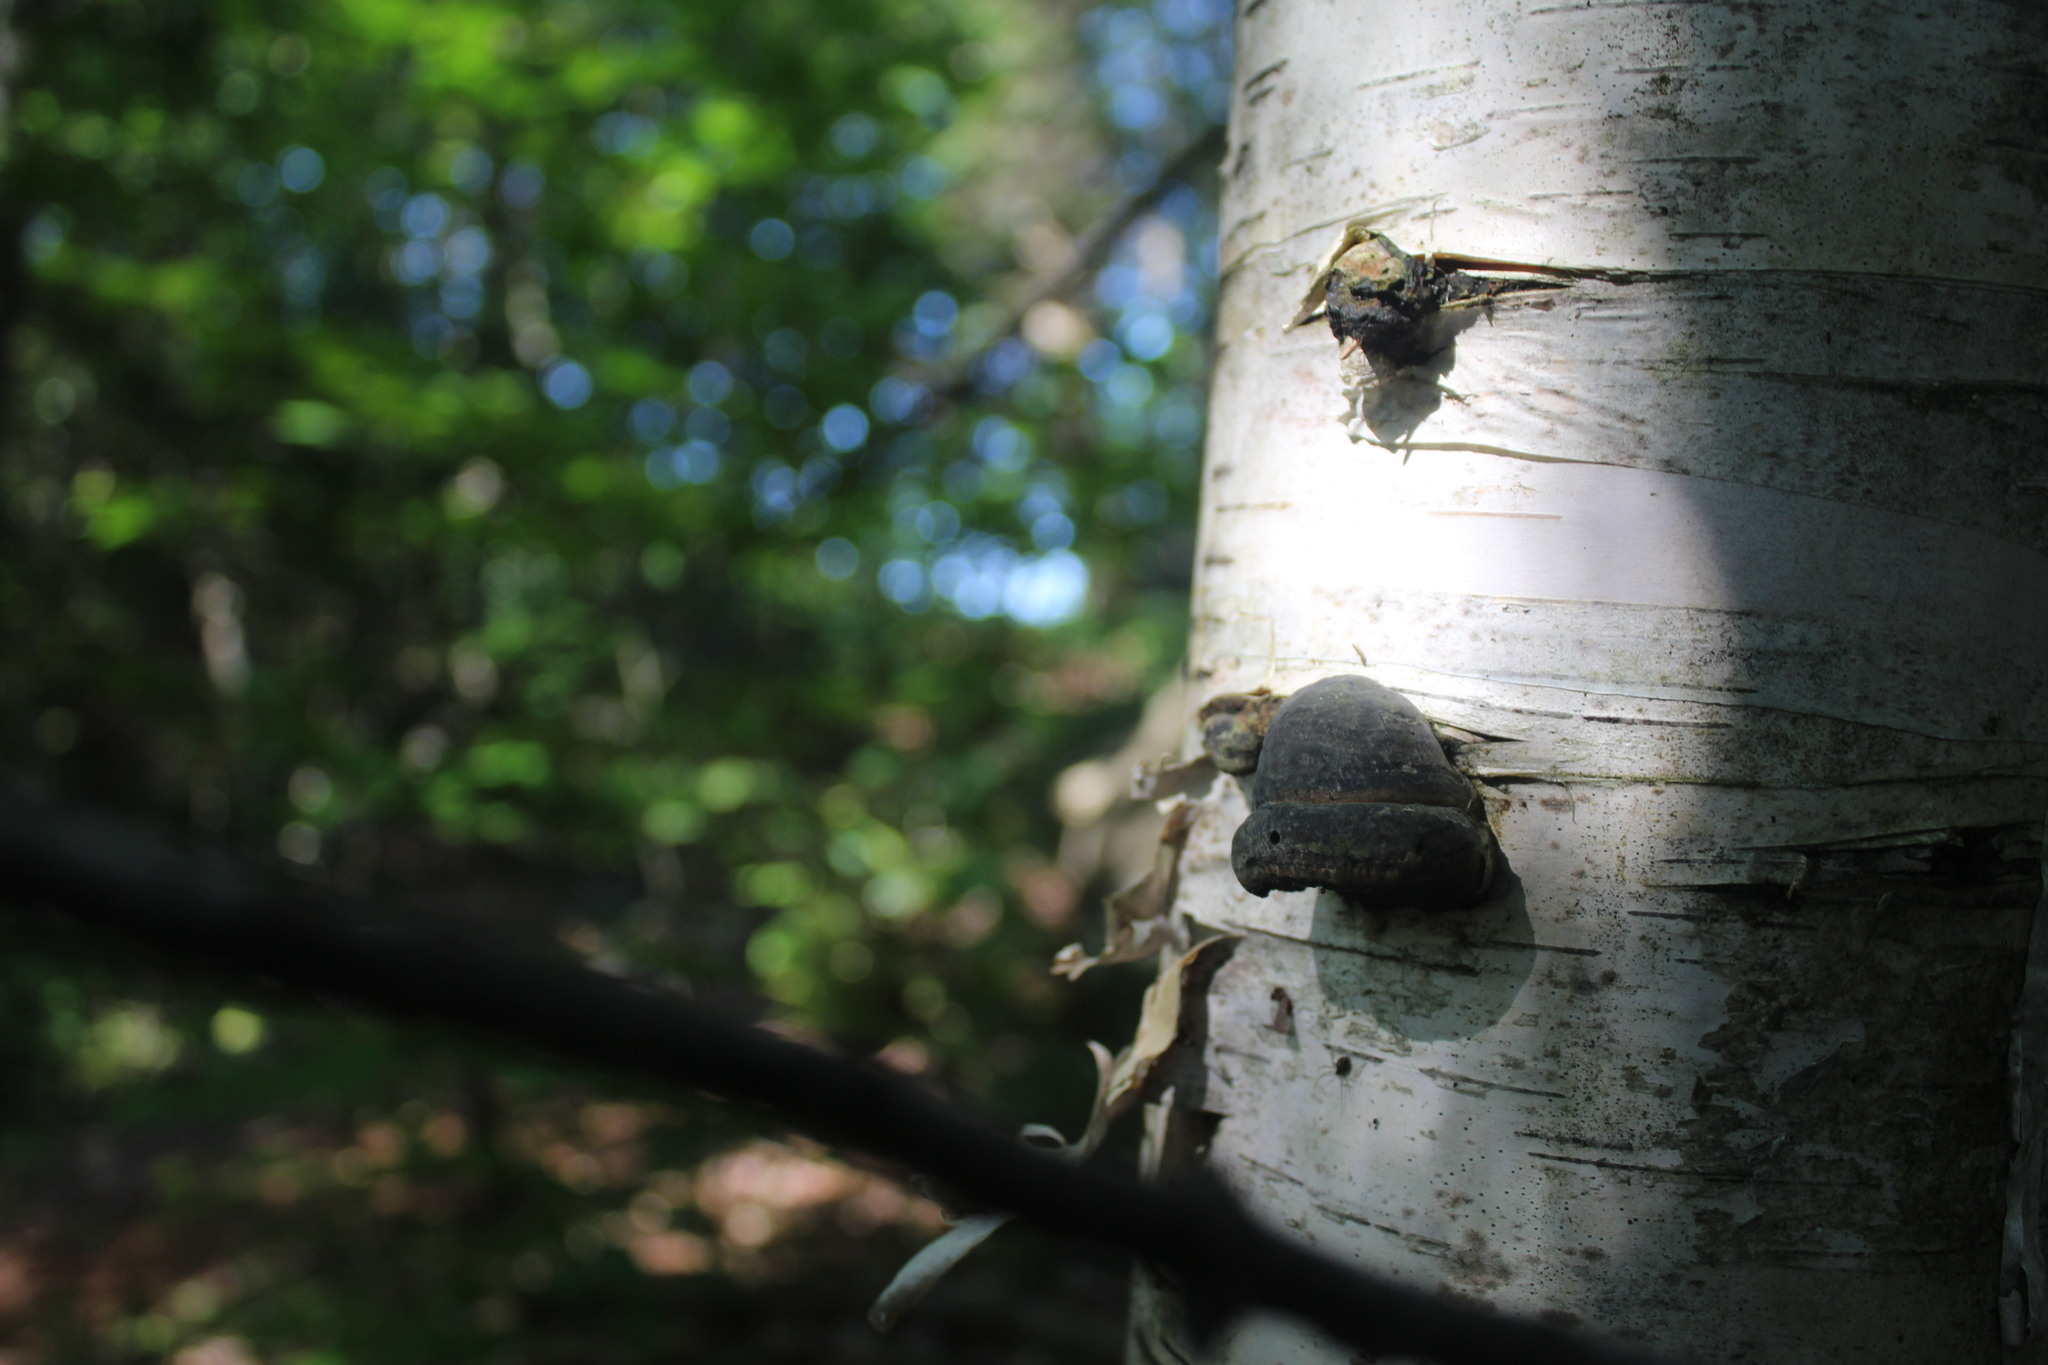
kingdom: Fungi
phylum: Basidiomycota
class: Agaricomycetes
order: Polyporales
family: Polyporaceae
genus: Fomes
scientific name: Fomes fomentarius
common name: Hoof fungus
